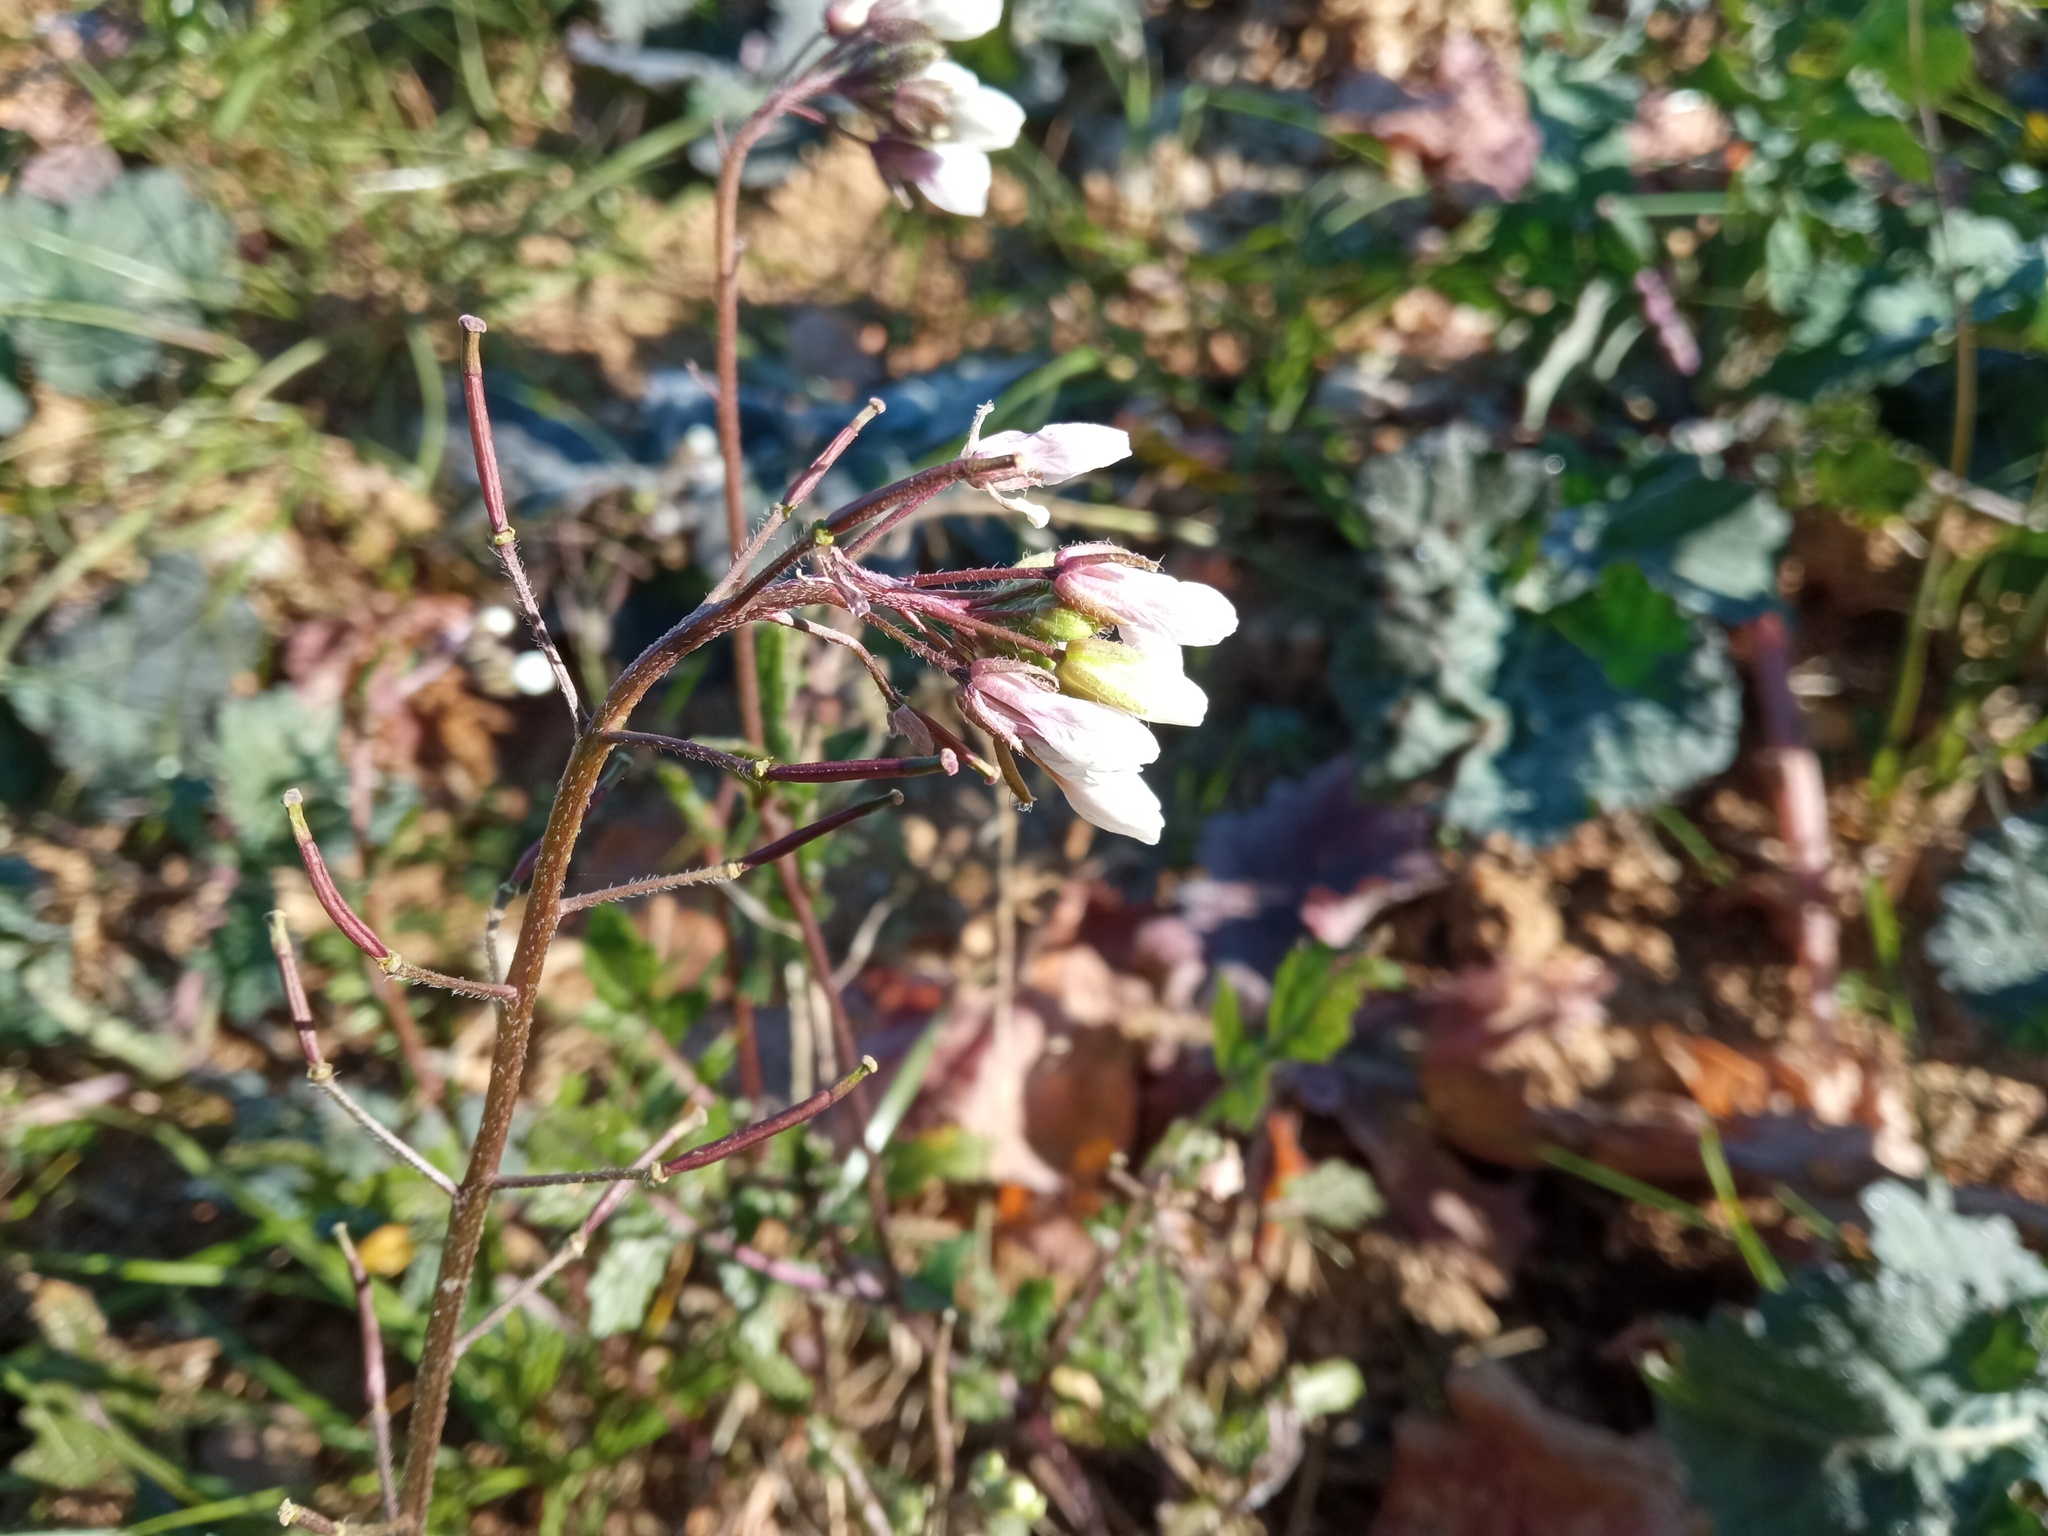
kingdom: Plantae
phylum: Tracheophyta
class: Magnoliopsida
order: Brassicales
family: Brassicaceae
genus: Diplotaxis
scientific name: Diplotaxis erucoides
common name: White rocket
